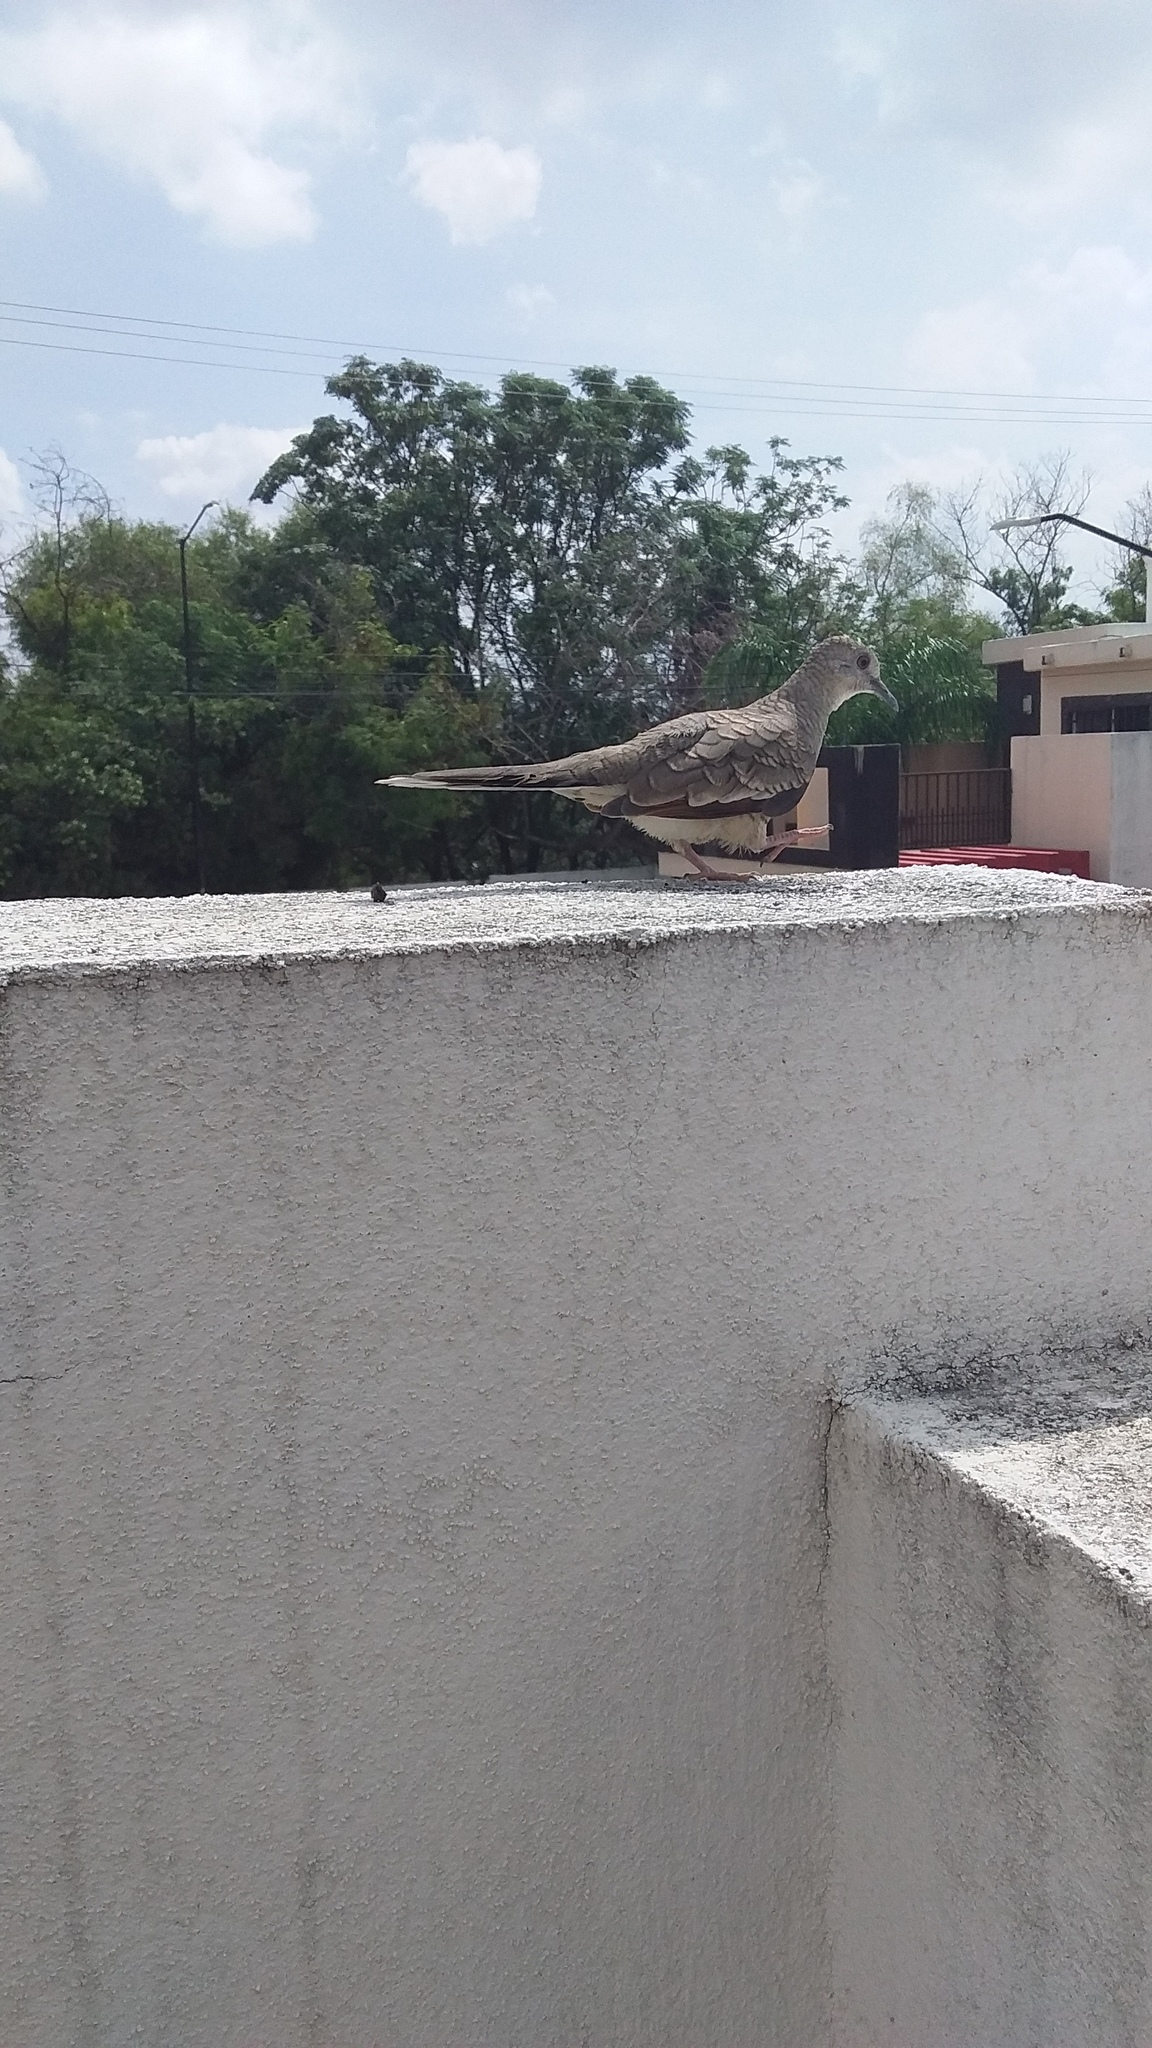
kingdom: Animalia
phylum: Chordata
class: Aves
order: Columbiformes
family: Columbidae
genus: Columbina
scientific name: Columbina inca
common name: Inca dove
